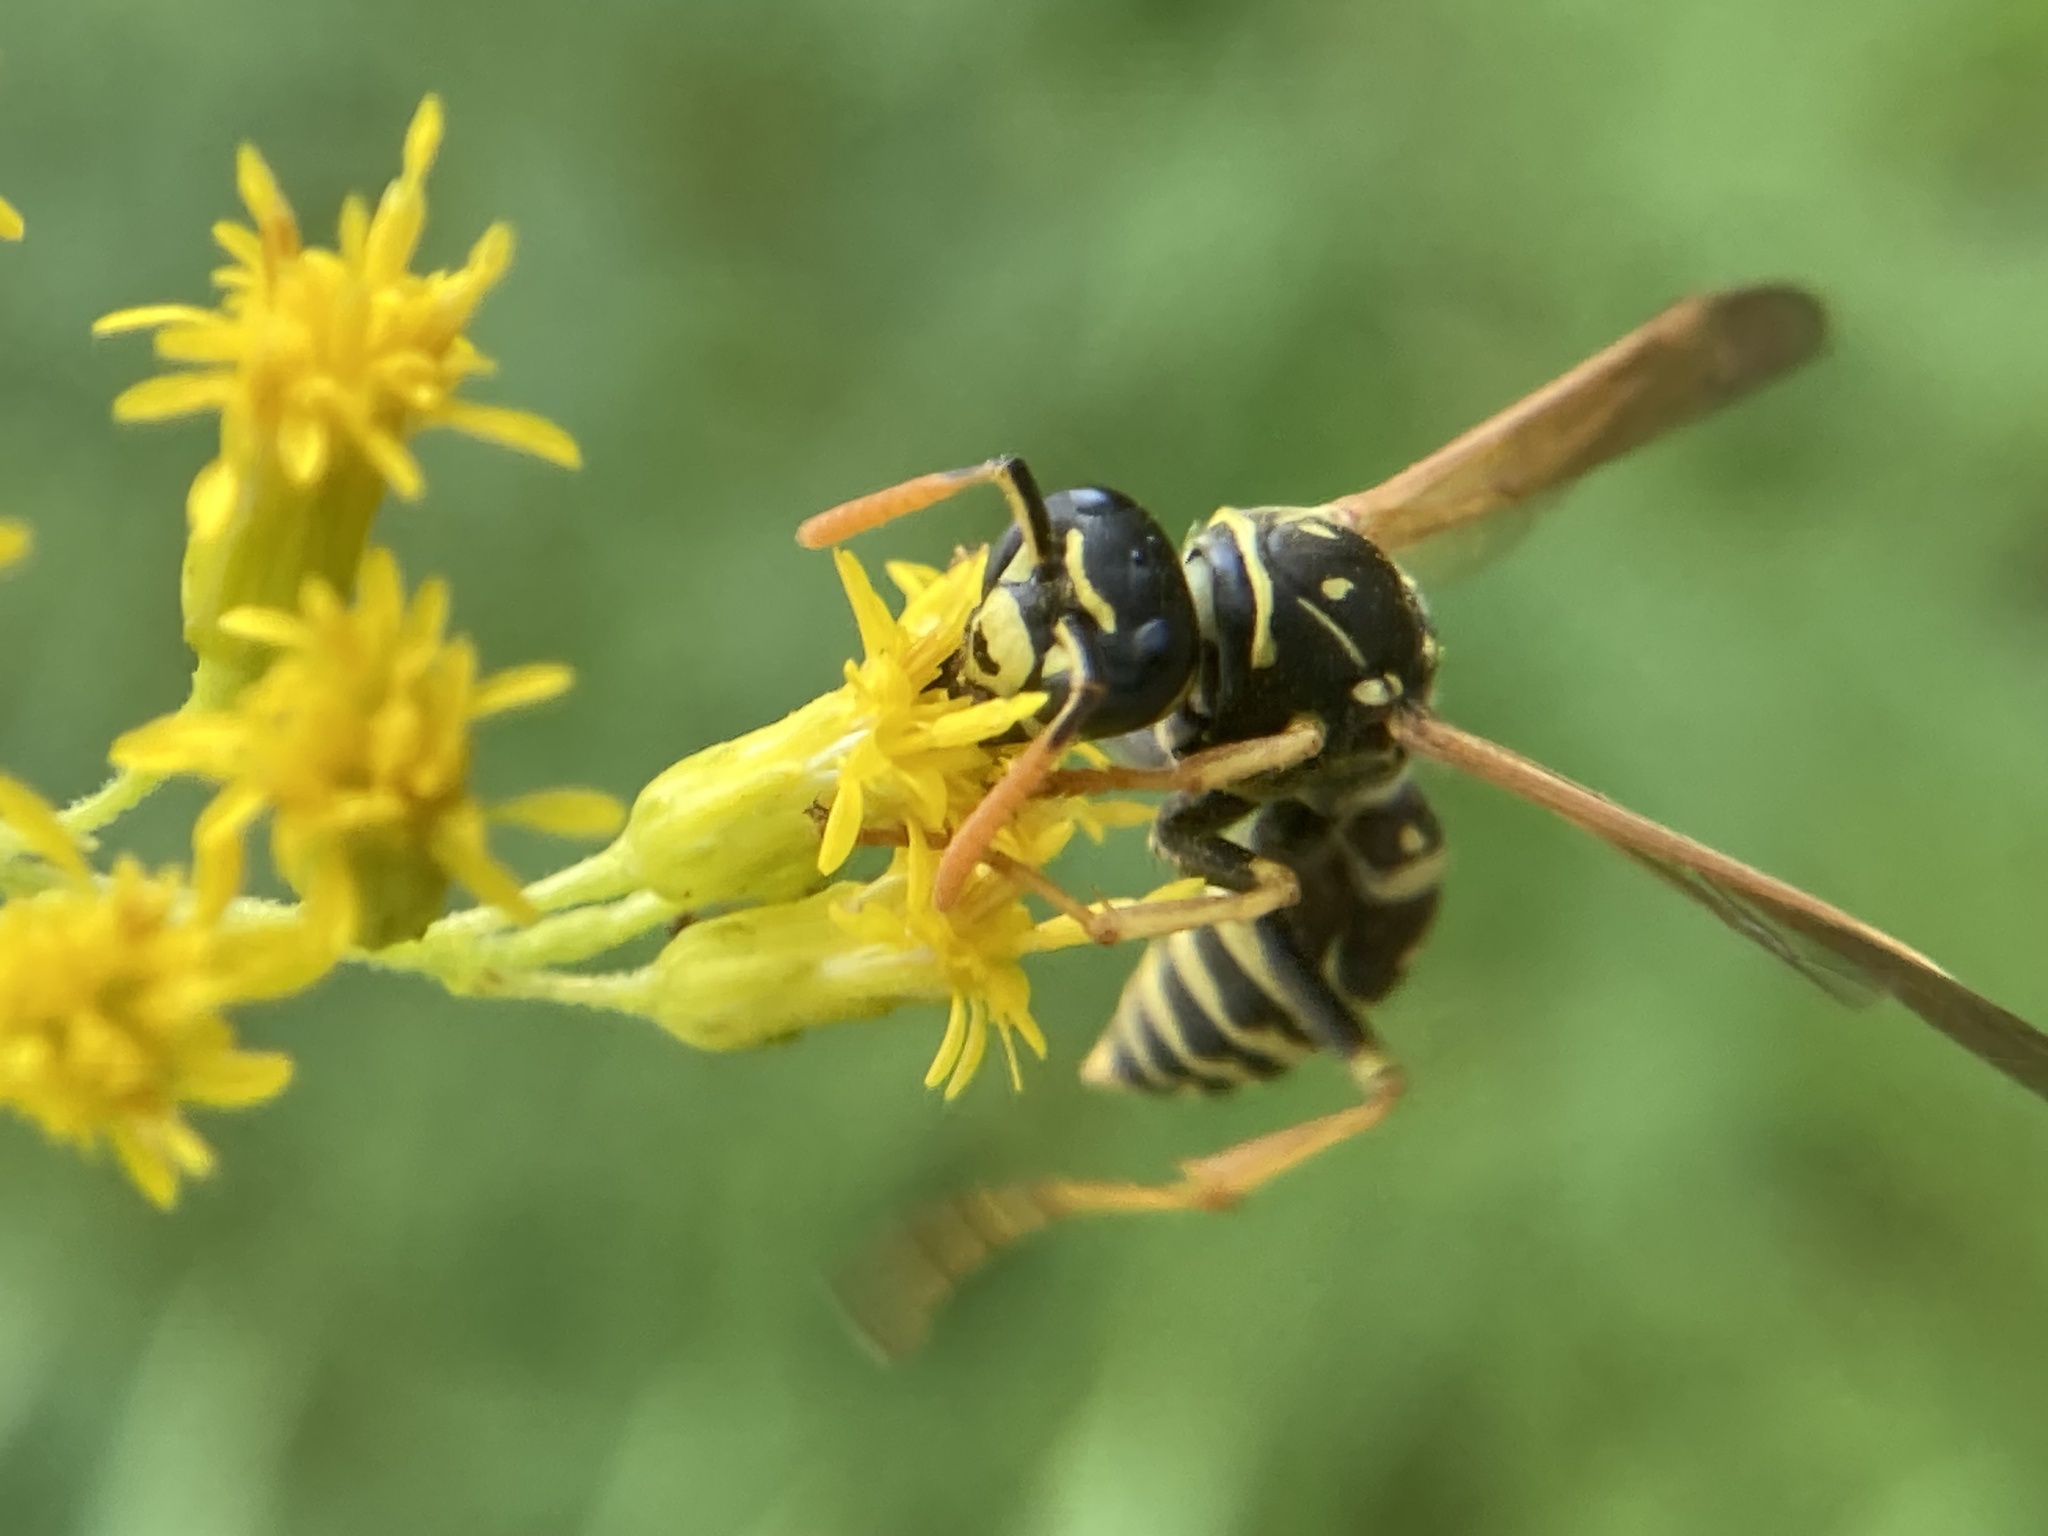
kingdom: Animalia
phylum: Arthropoda
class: Insecta
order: Hymenoptera
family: Eumenidae
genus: Polistes
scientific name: Polistes dominula
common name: Paper wasp
